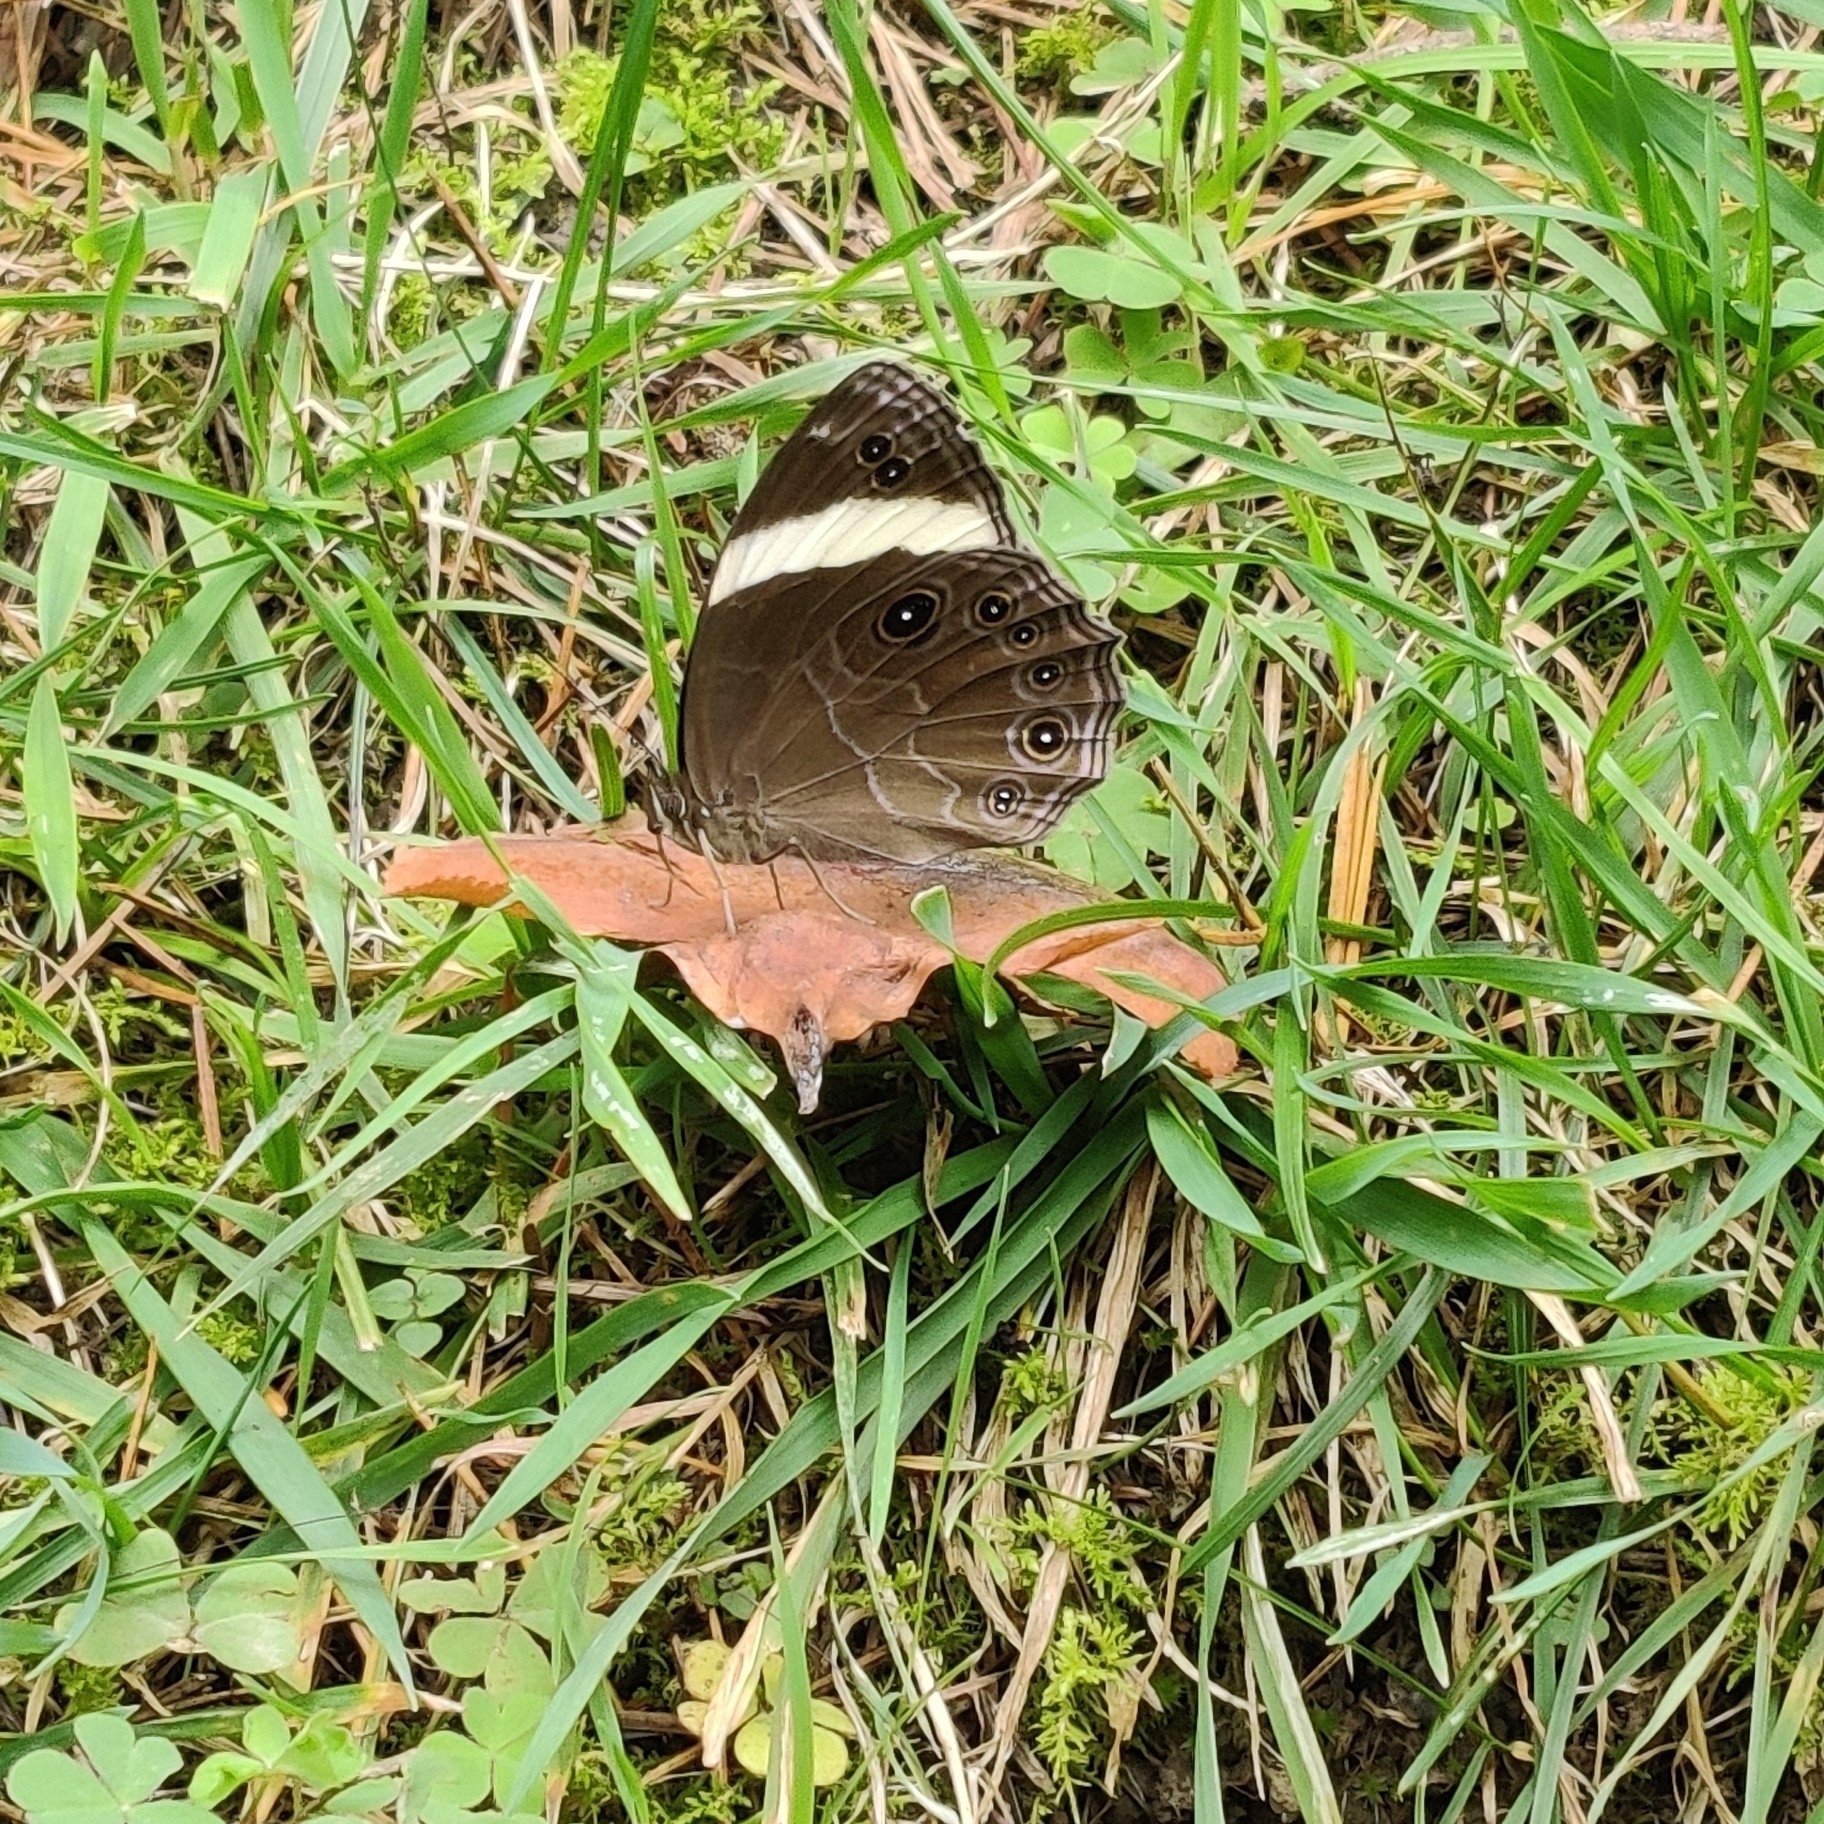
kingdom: Animalia
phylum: Arthropoda
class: Insecta
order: Lepidoptera
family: Nymphalidae
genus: Lethe
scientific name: Lethe verma
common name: Straight-banded treebrown
